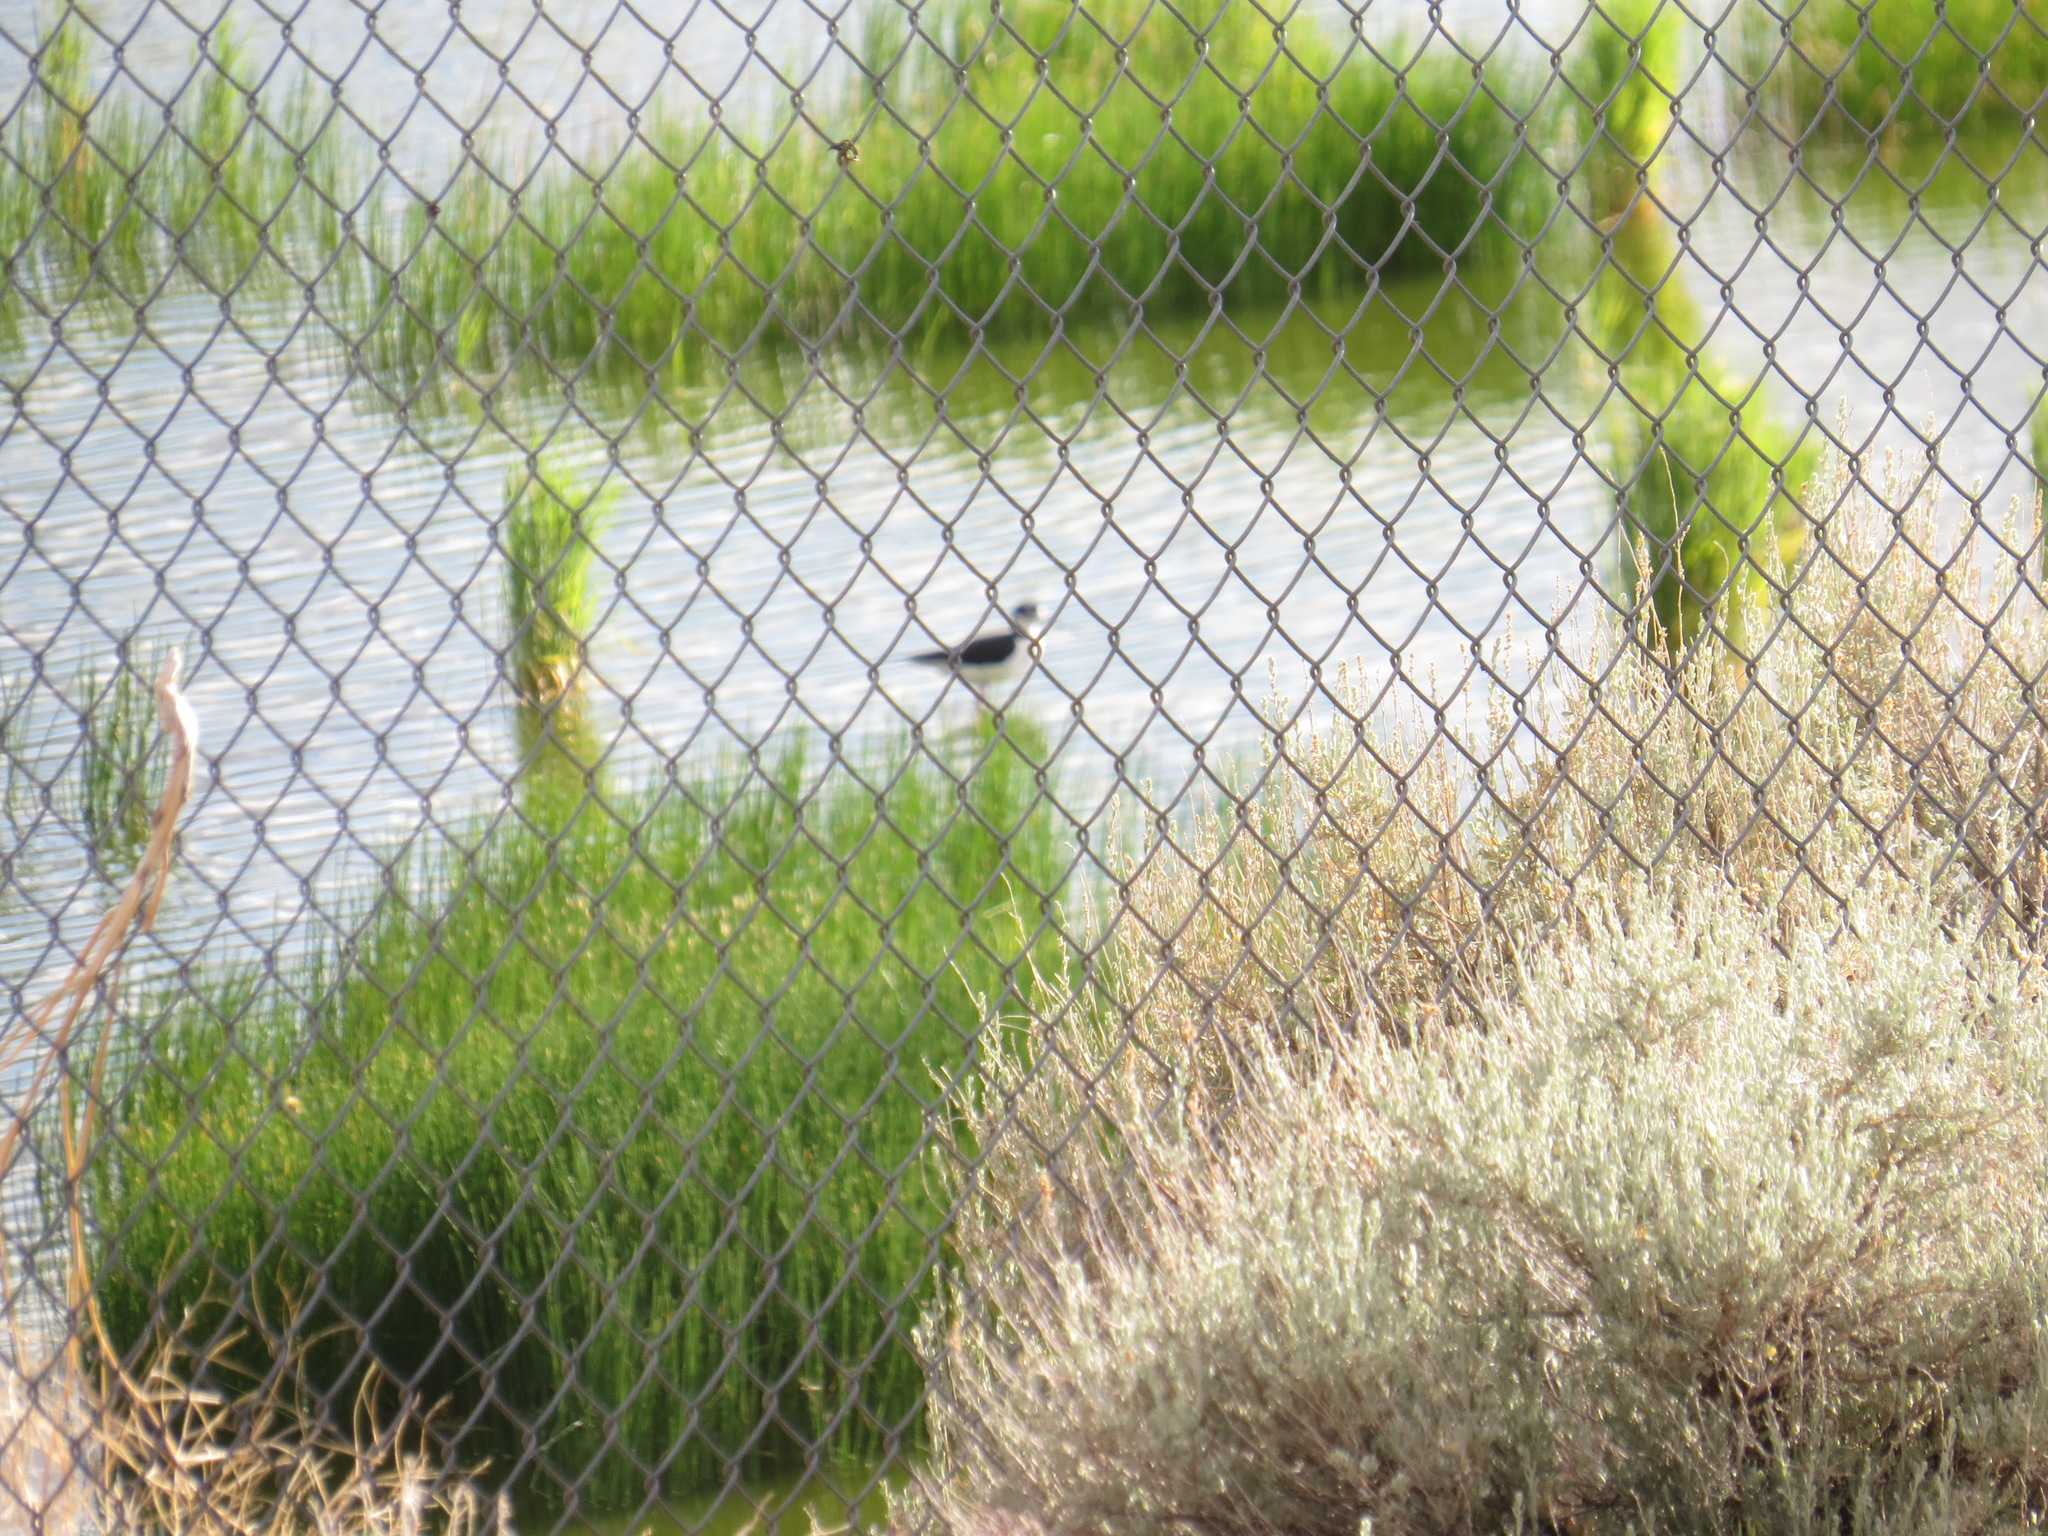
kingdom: Animalia
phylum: Chordata
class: Aves
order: Charadriiformes
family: Recurvirostridae
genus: Himantopus
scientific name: Himantopus mexicanus
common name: Black-necked stilt
